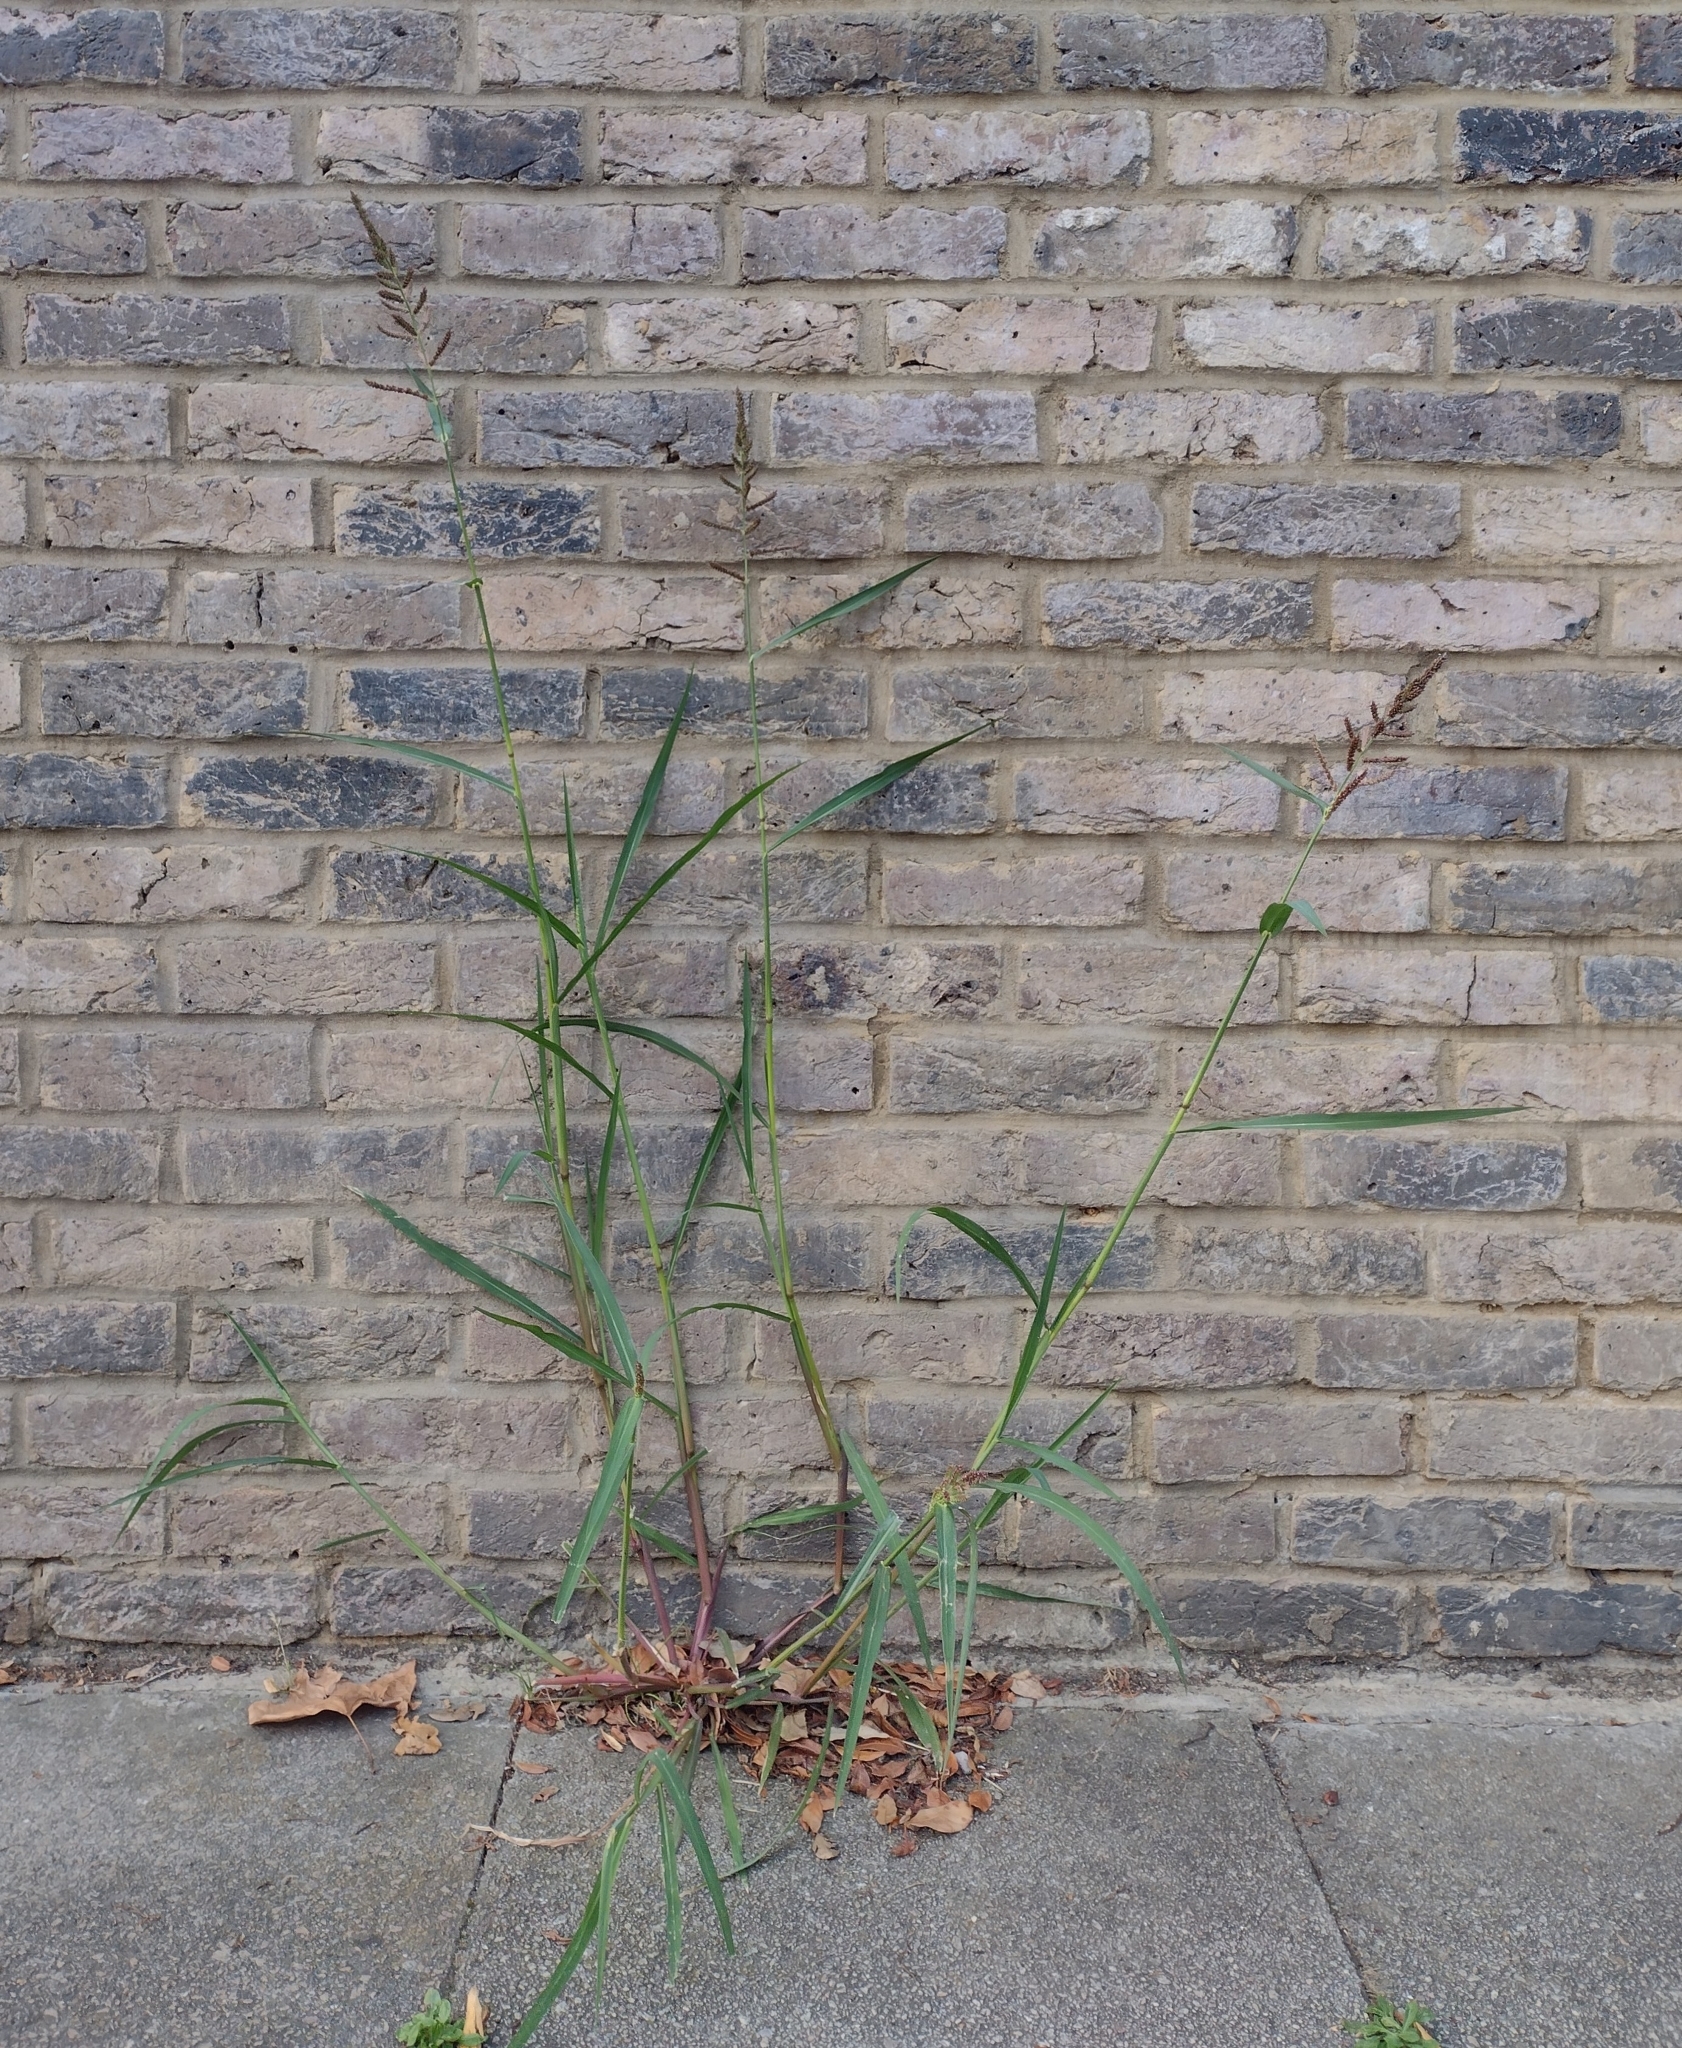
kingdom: Plantae
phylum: Tracheophyta
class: Liliopsida
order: Poales
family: Poaceae
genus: Echinochloa
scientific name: Echinochloa crus-galli
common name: Cockspur
